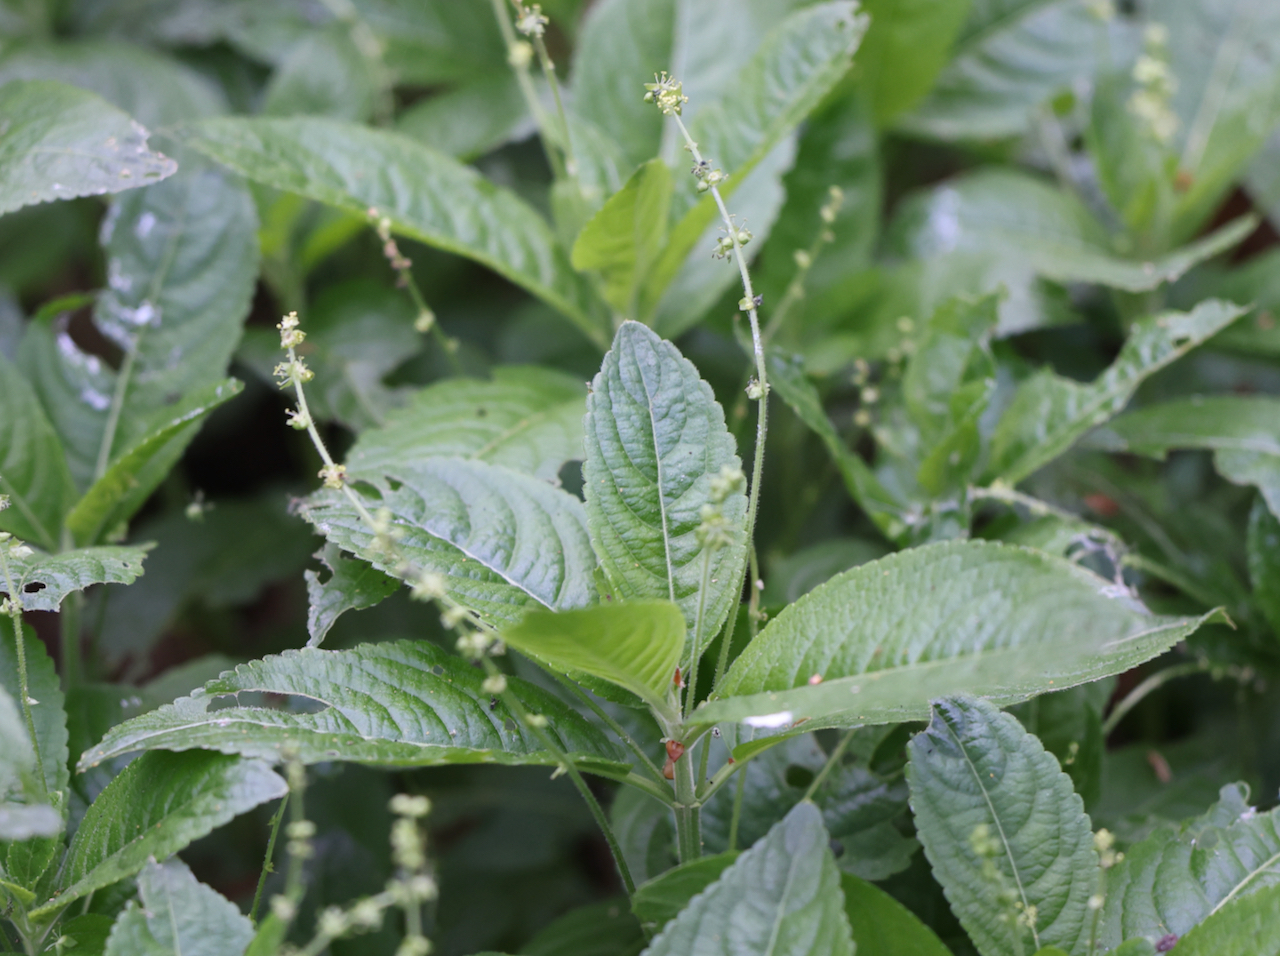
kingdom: Plantae
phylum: Tracheophyta
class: Magnoliopsida
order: Malpighiales
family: Euphorbiaceae
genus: Mercurialis
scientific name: Mercurialis perennis
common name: Dog mercury
